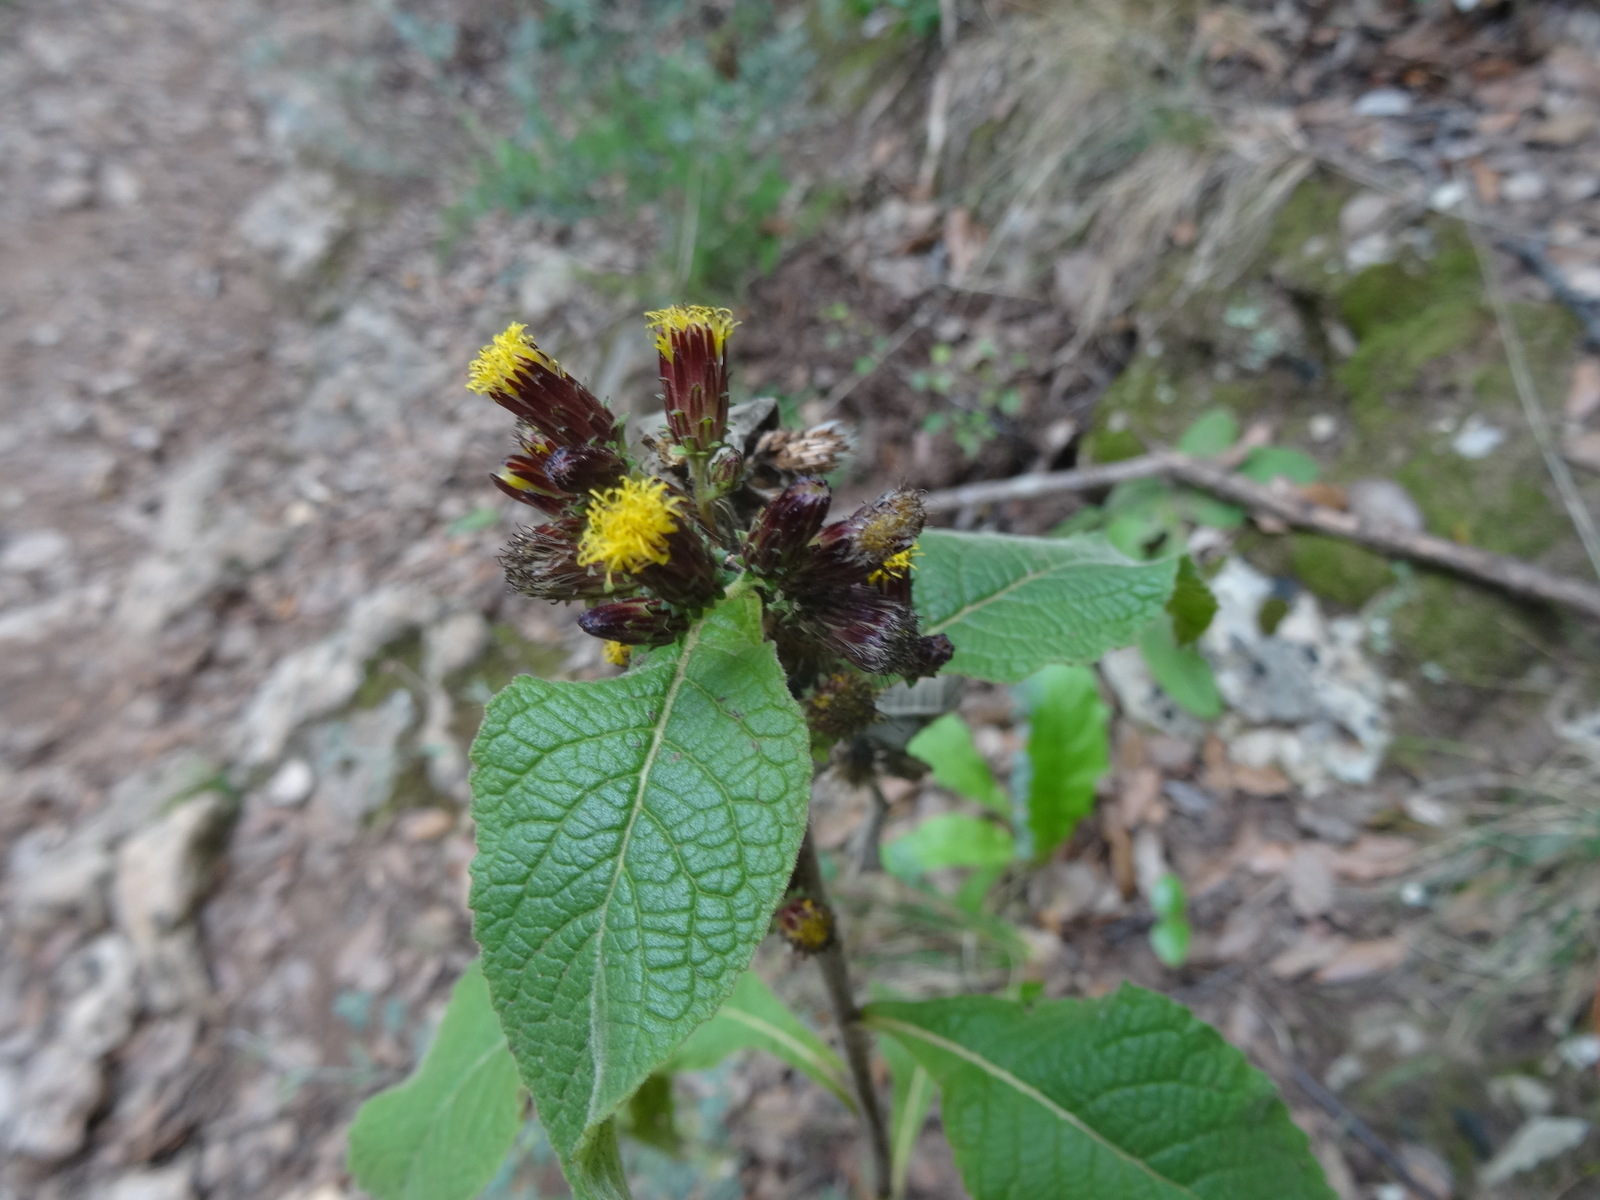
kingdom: Plantae
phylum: Tracheophyta
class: Magnoliopsida
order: Asterales
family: Asteraceae
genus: Pentanema
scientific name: Pentanema squarrosum
